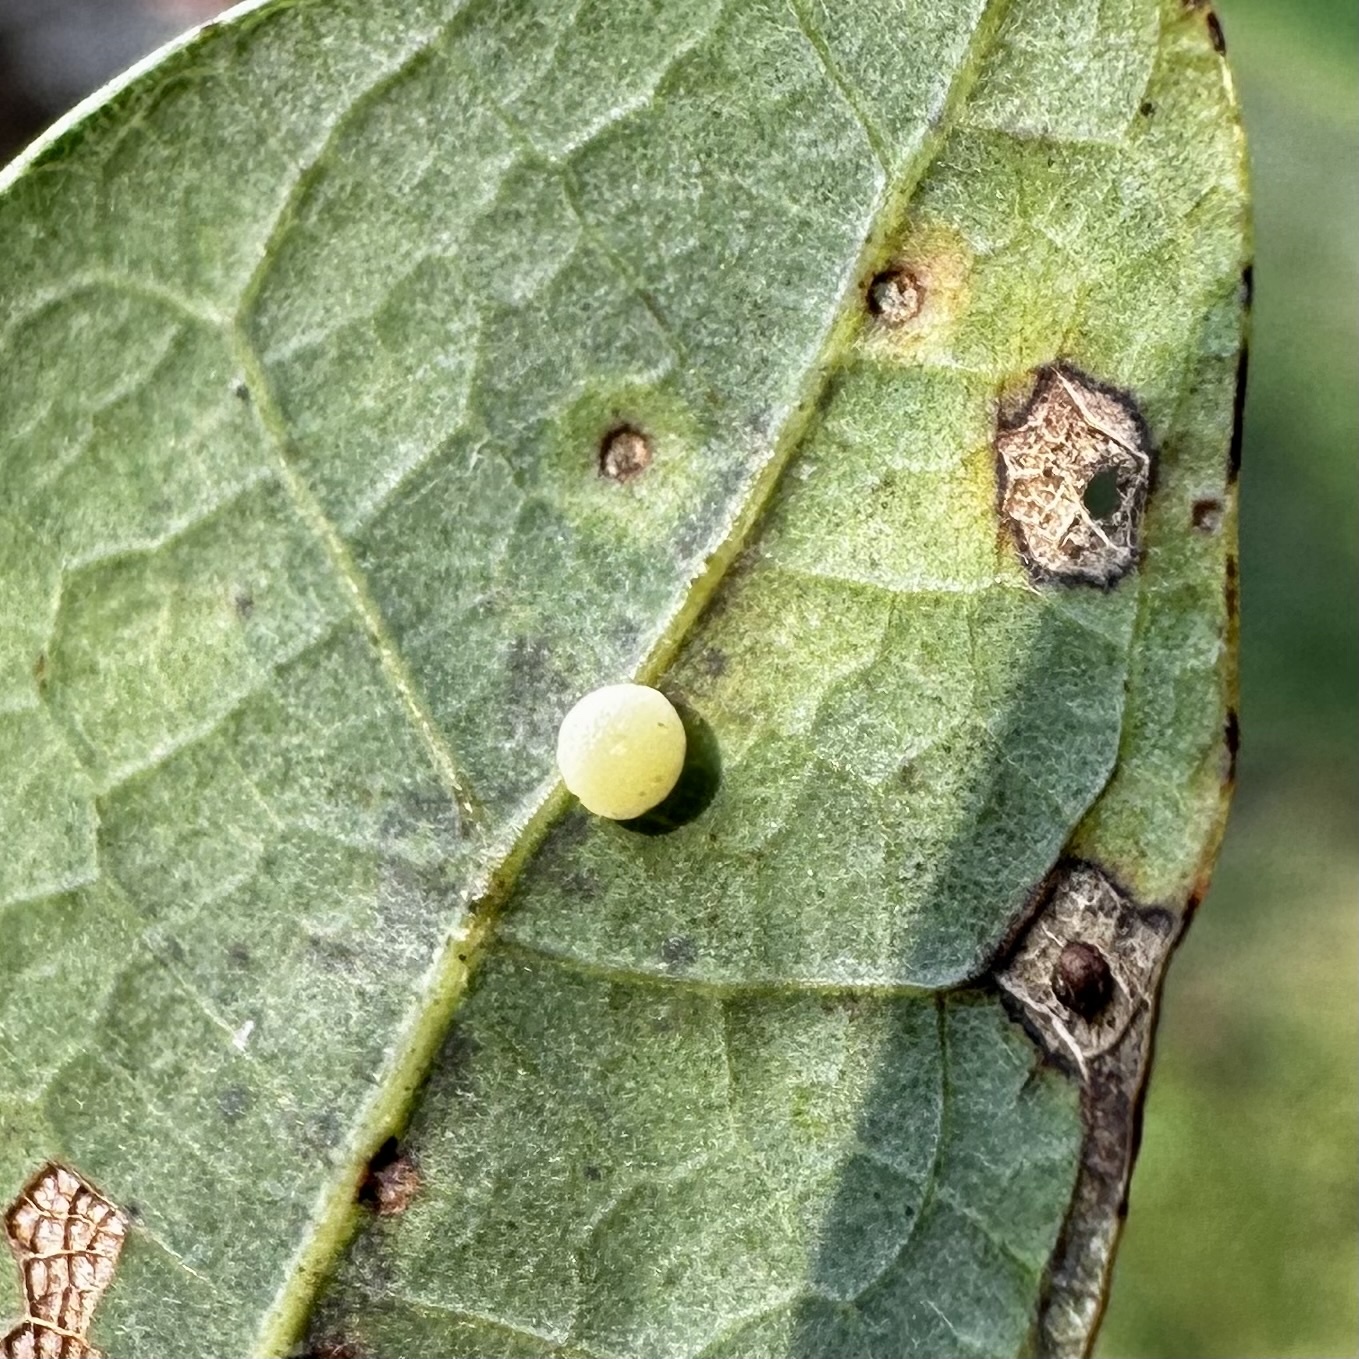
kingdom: Animalia
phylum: Arthropoda
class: Insecta
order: Hymenoptera
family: Cynipidae
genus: Phylloteras
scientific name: Phylloteras
